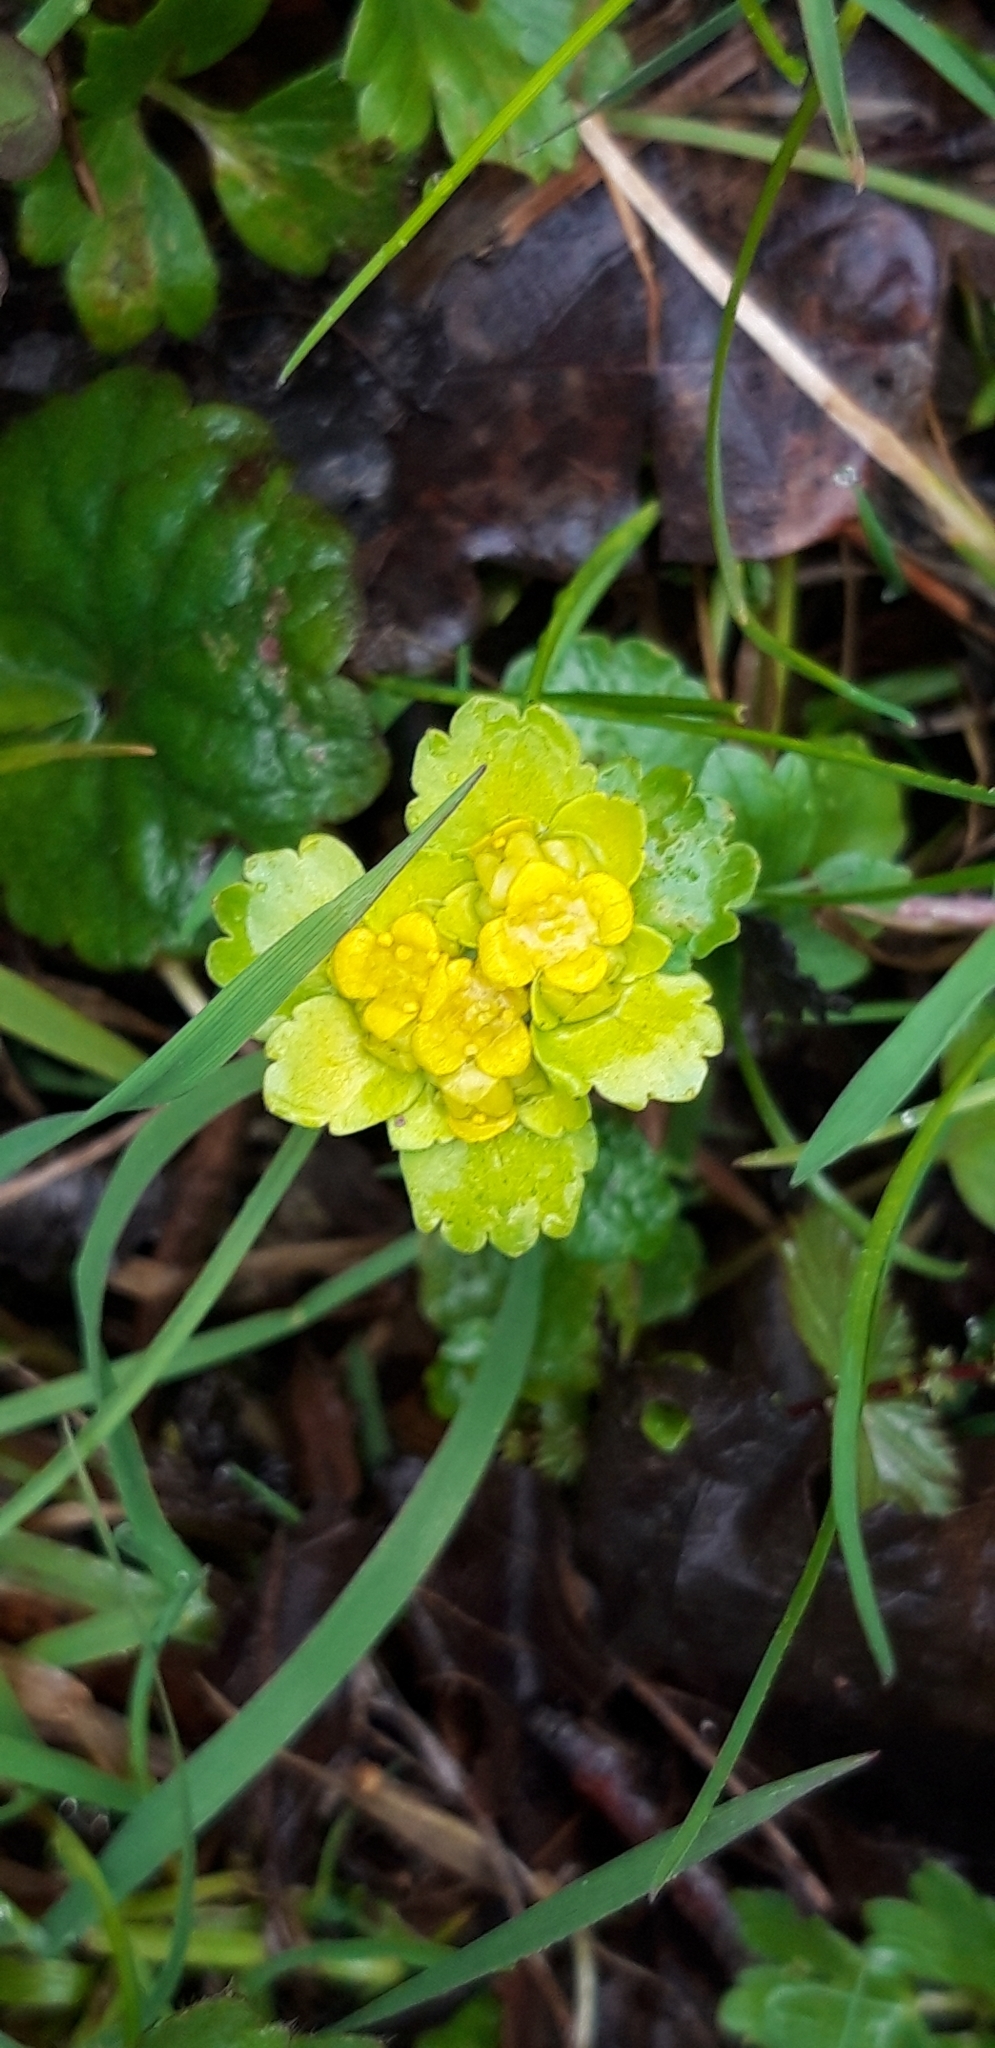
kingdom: Plantae
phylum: Tracheophyta
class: Magnoliopsida
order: Saxifragales
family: Saxifragaceae
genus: Chrysosplenium
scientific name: Chrysosplenium alternifolium
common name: Alternate-leaved golden-saxifrage
